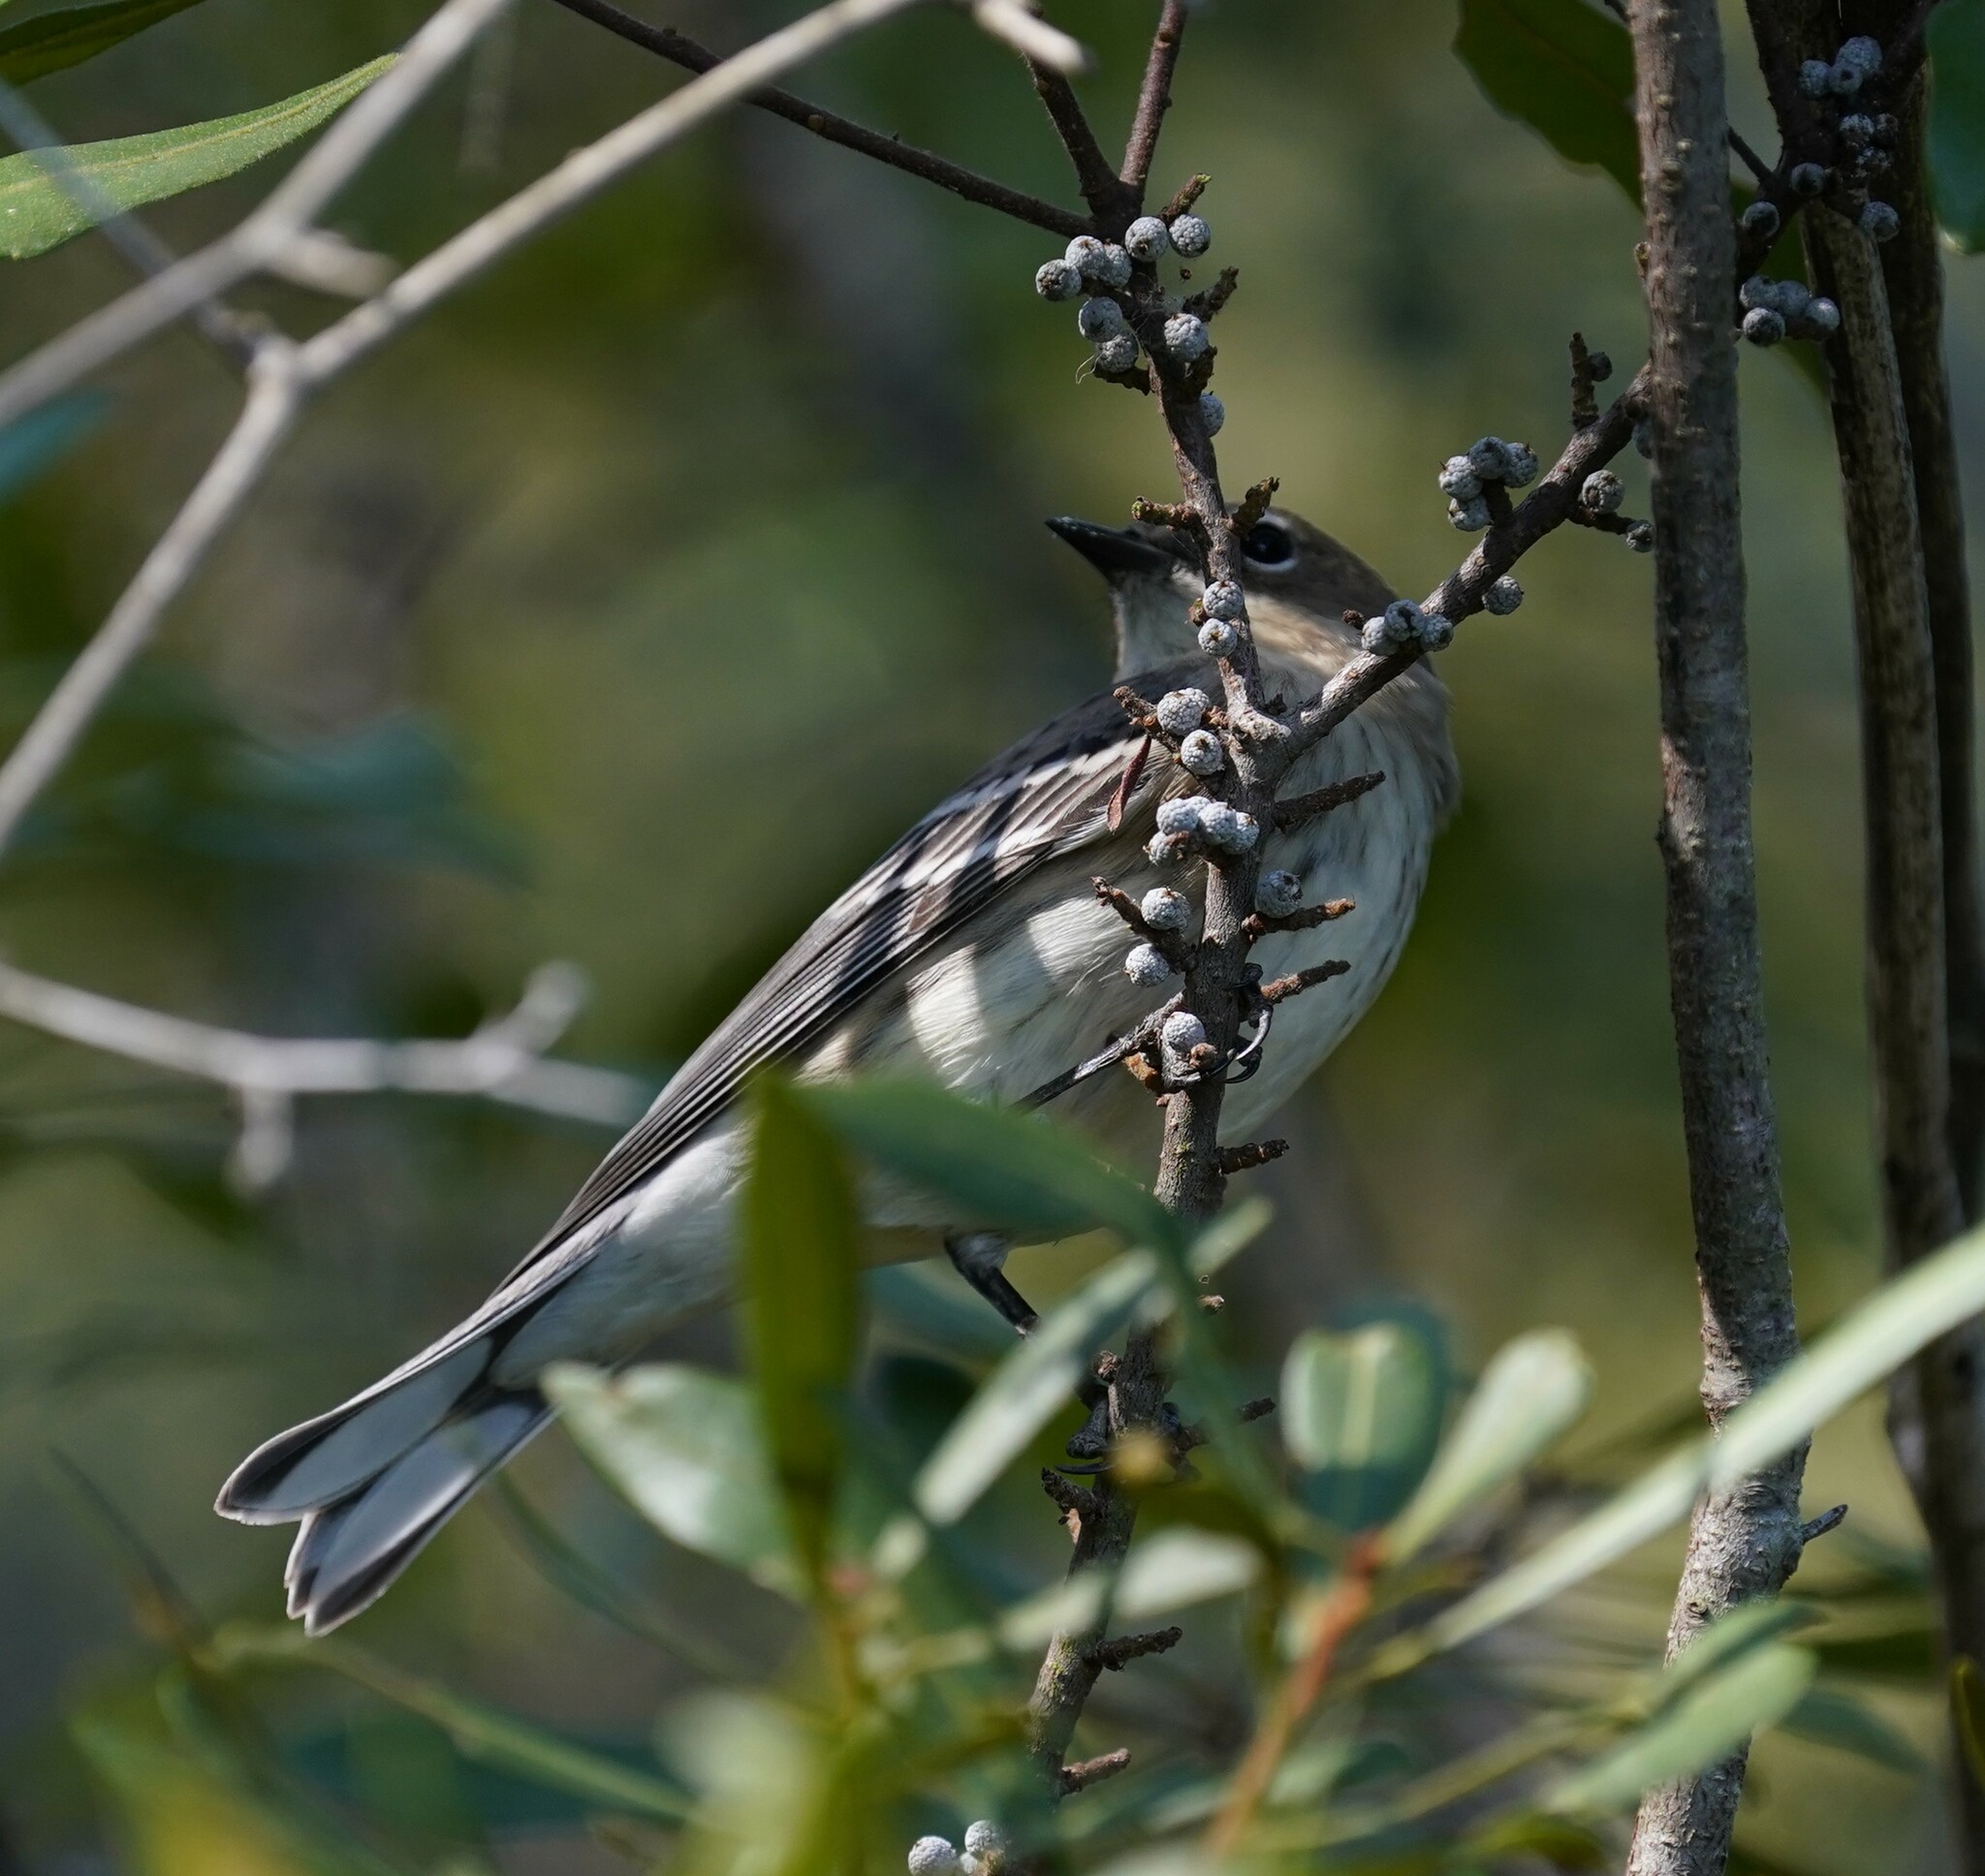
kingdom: Animalia
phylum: Chordata
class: Aves
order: Passeriformes
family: Parulidae
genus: Setophaga
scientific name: Setophaga coronata
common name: Myrtle warbler
